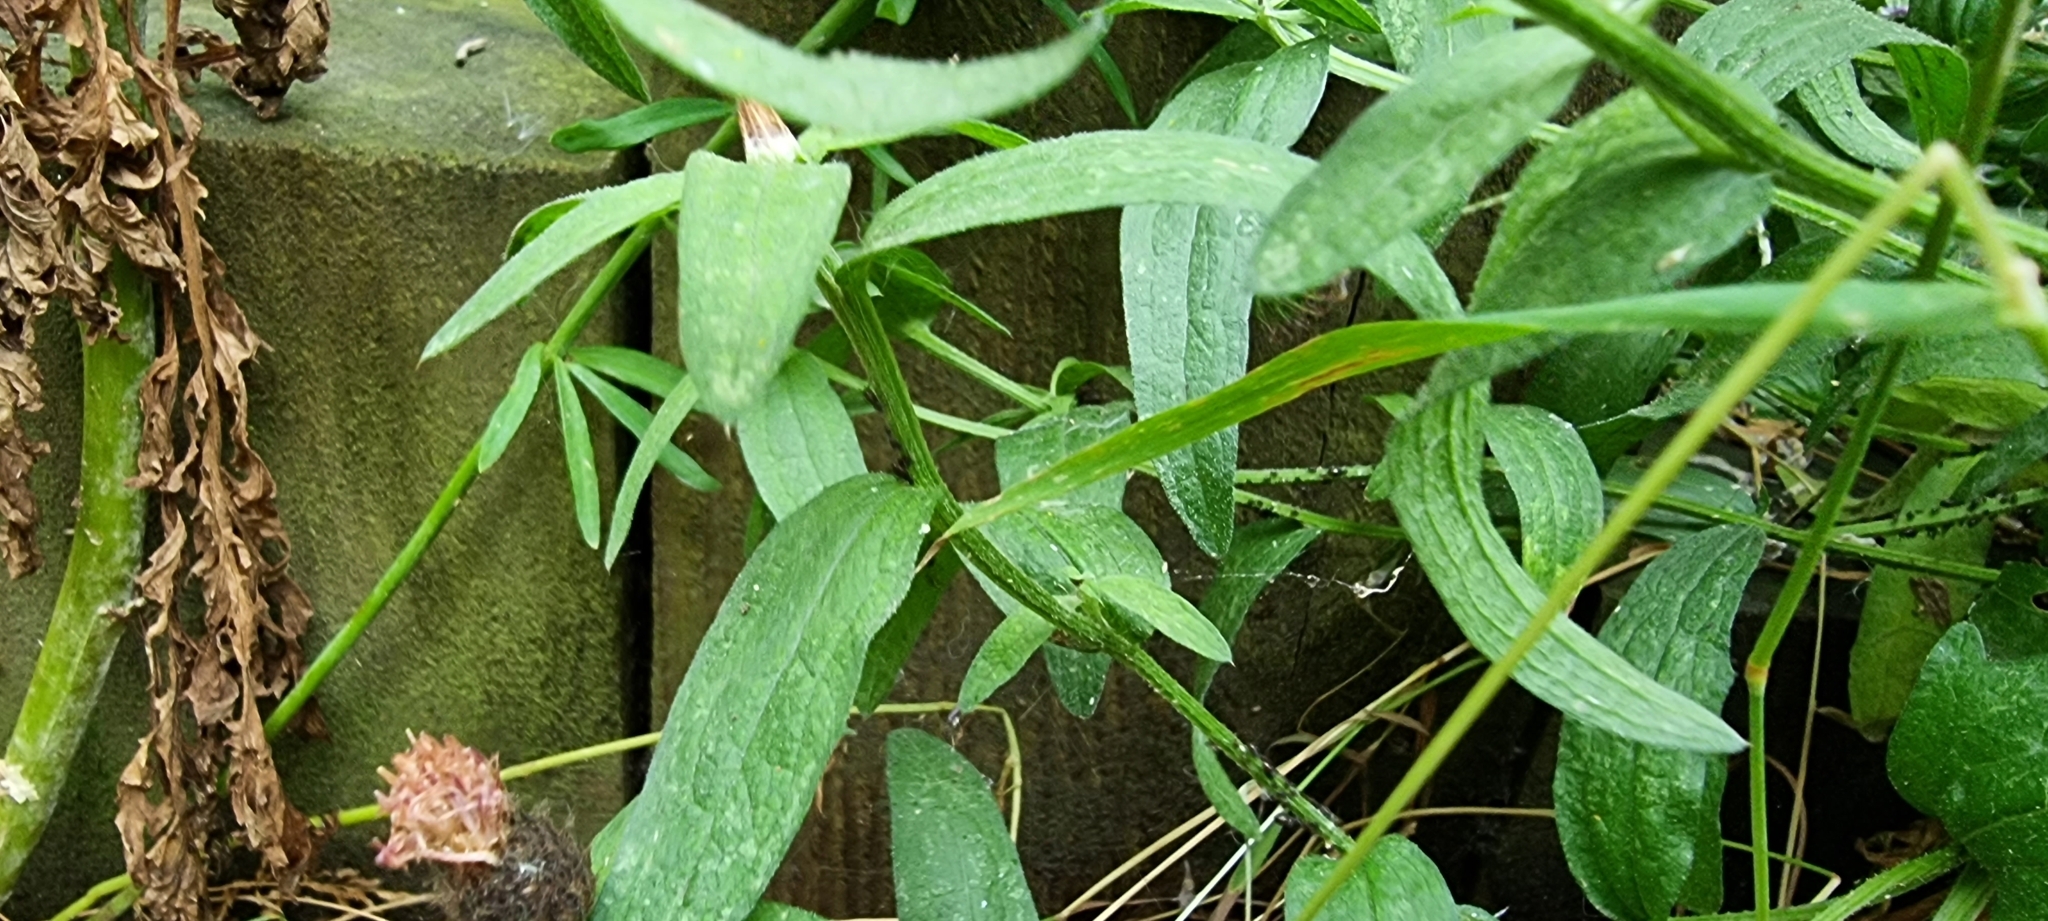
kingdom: Plantae
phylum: Tracheophyta
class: Magnoliopsida
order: Asterales
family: Asteraceae
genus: Centaurea
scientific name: Centaurea nigra
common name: Lesser knapweed
